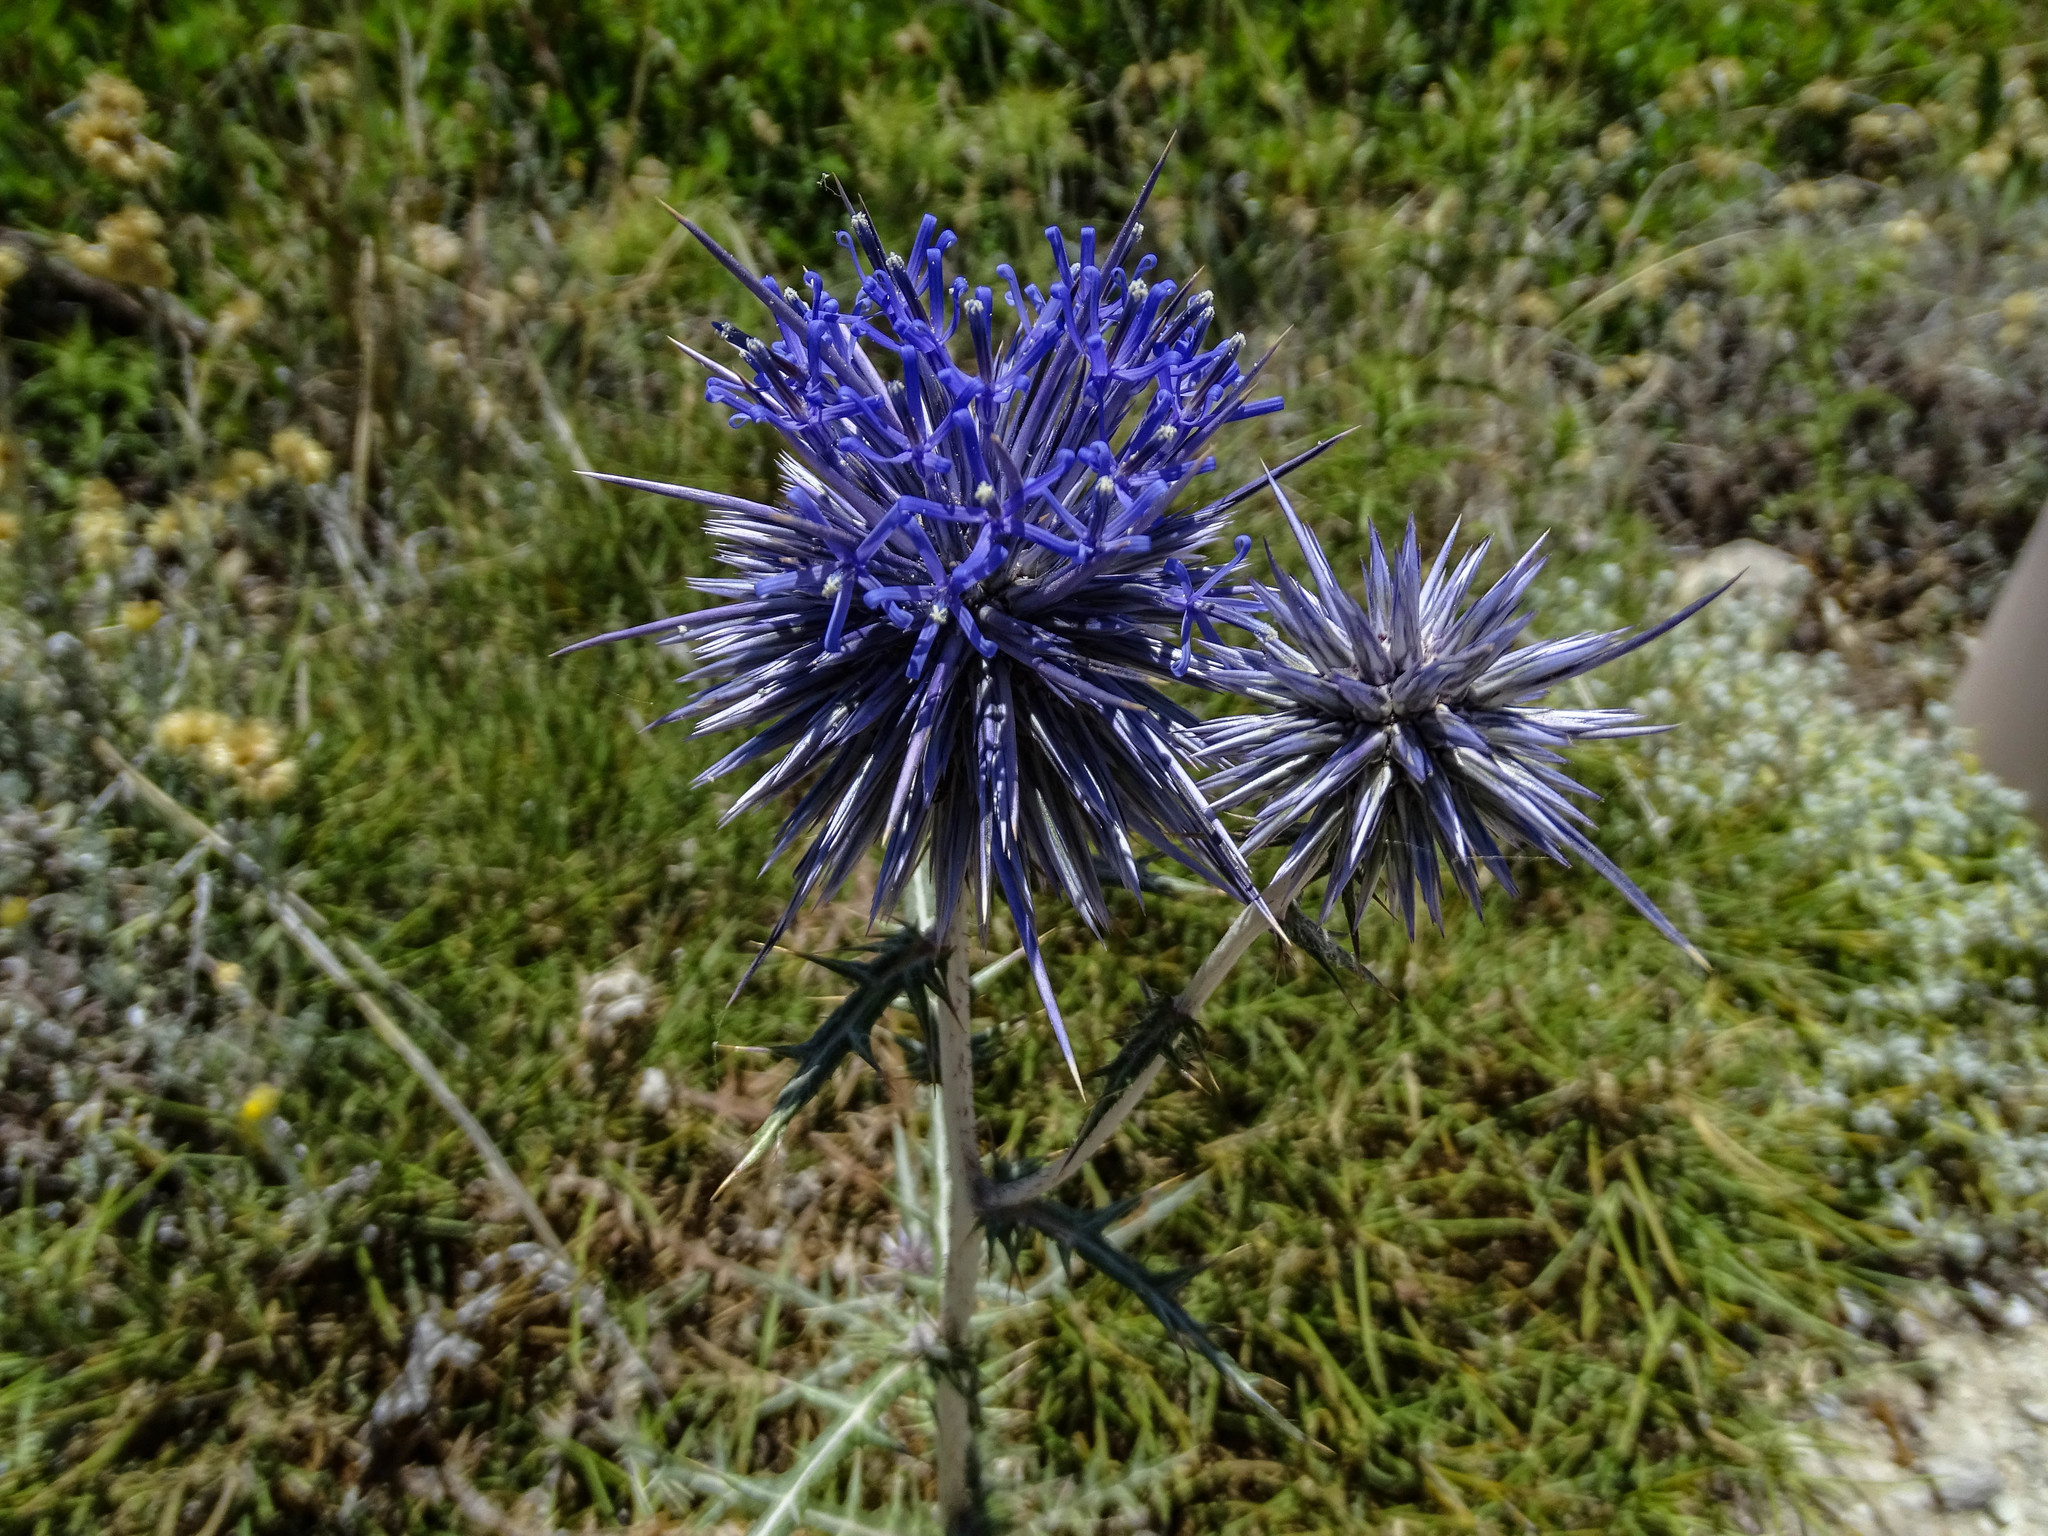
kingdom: Plantae
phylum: Tracheophyta
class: Magnoliopsida
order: Asterales
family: Asteraceae
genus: Echinops
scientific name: Echinops spinosissimus
